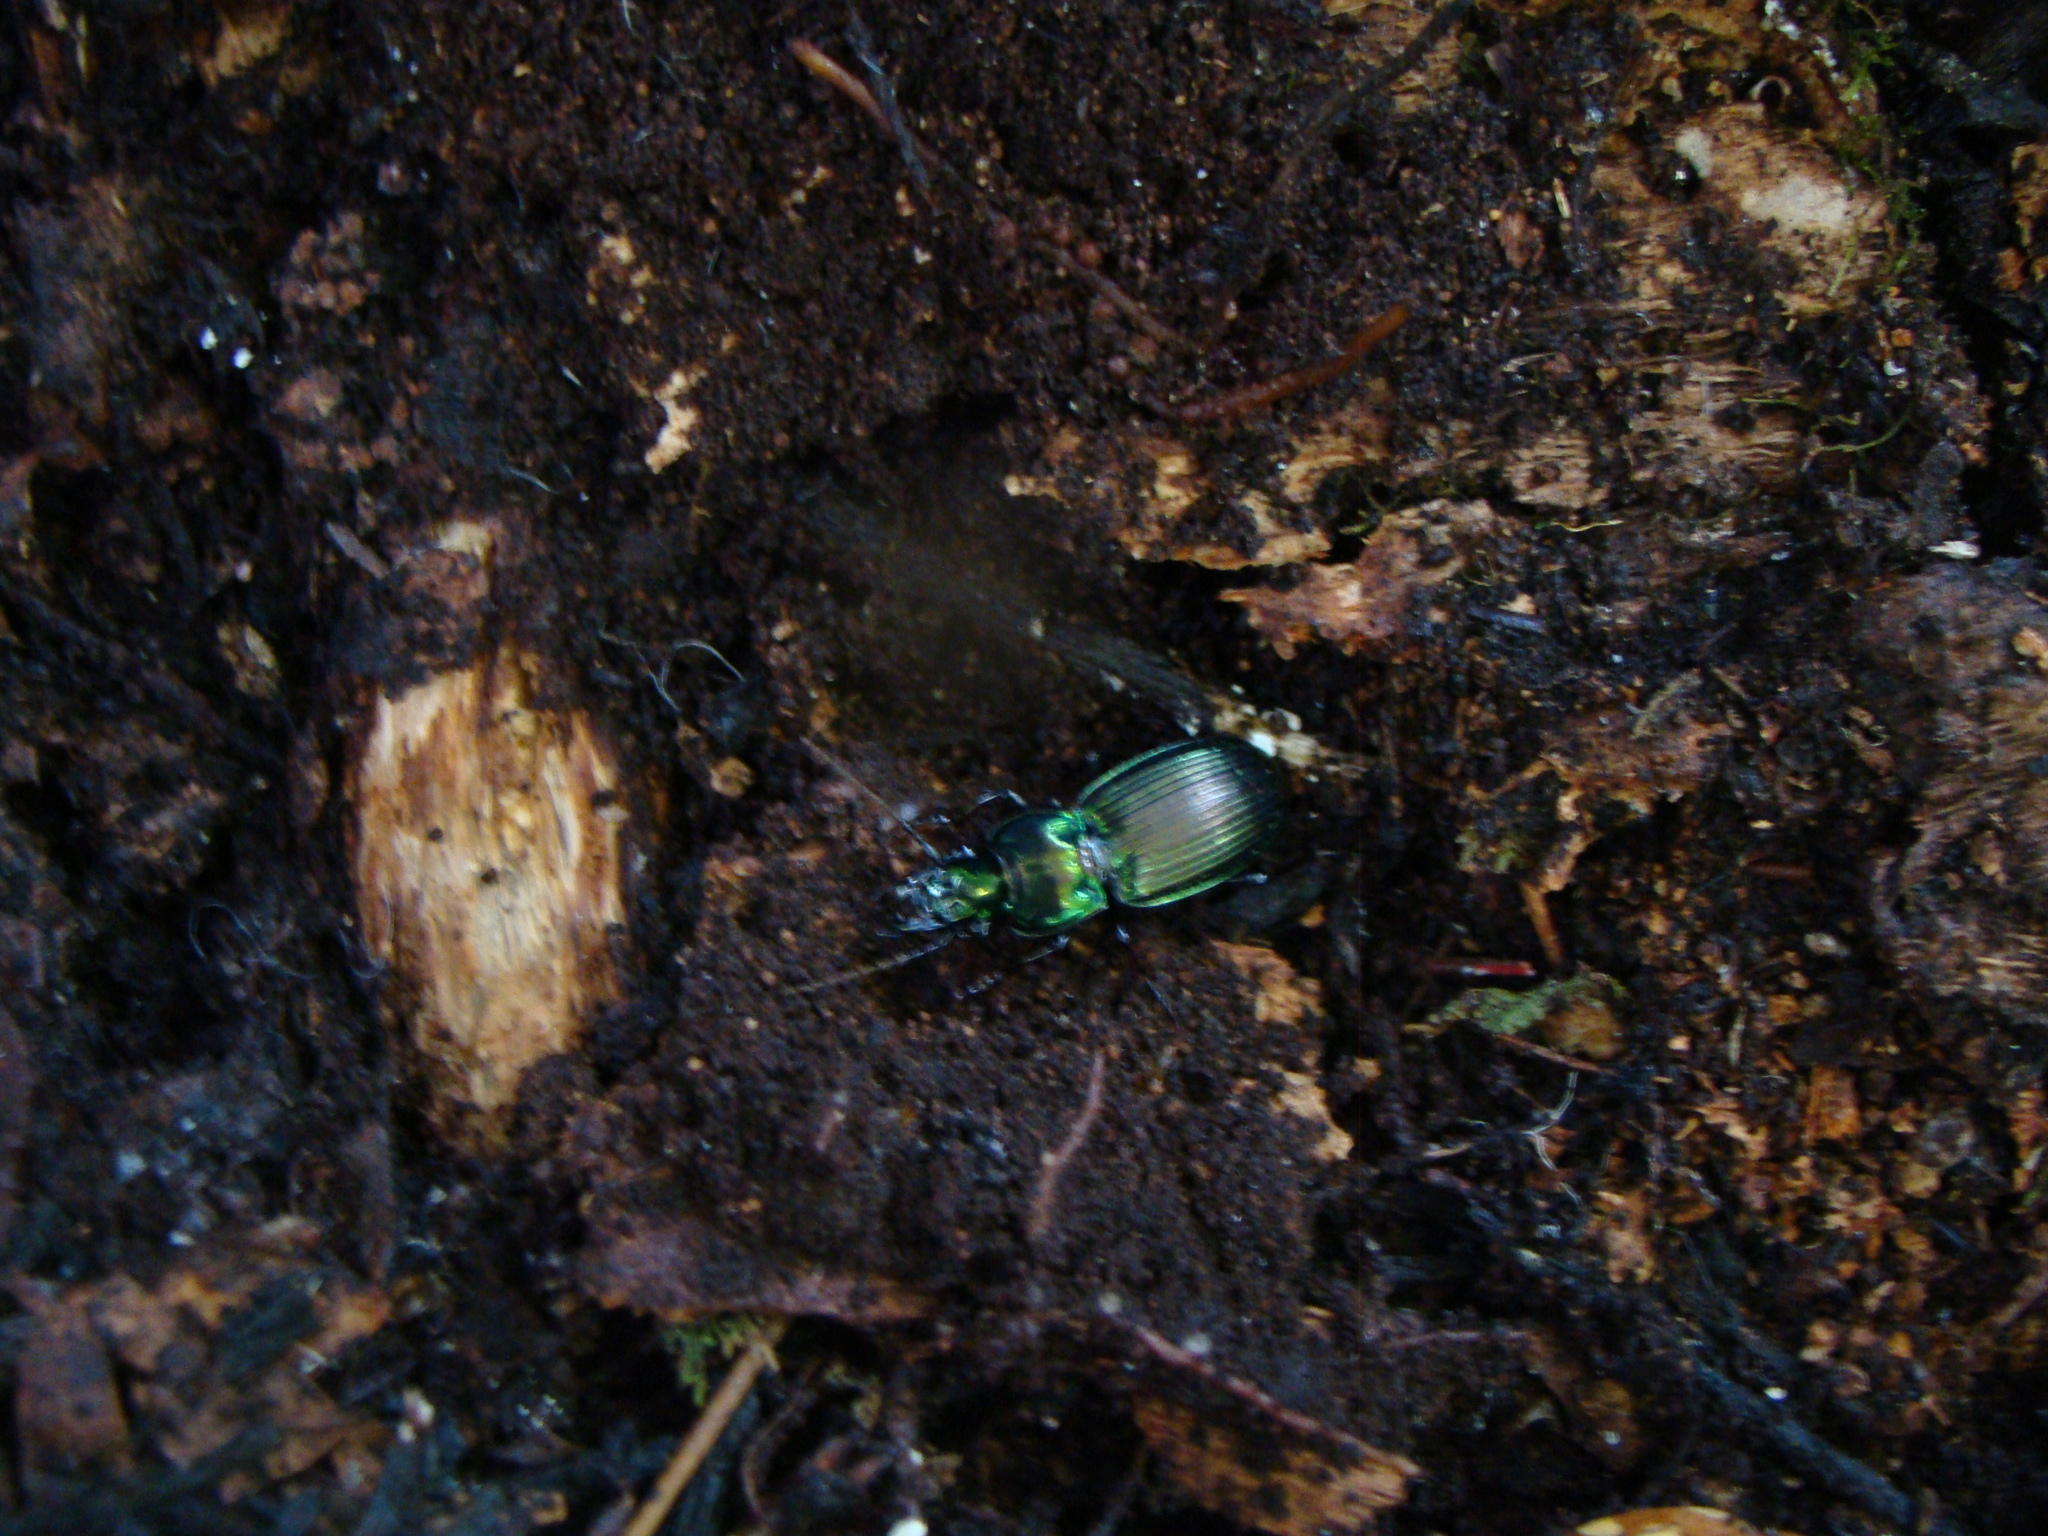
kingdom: Animalia
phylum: Arthropoda
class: Insecta
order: Coleoptera
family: Carabidae
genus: Megadromus
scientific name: Megadromus capito
